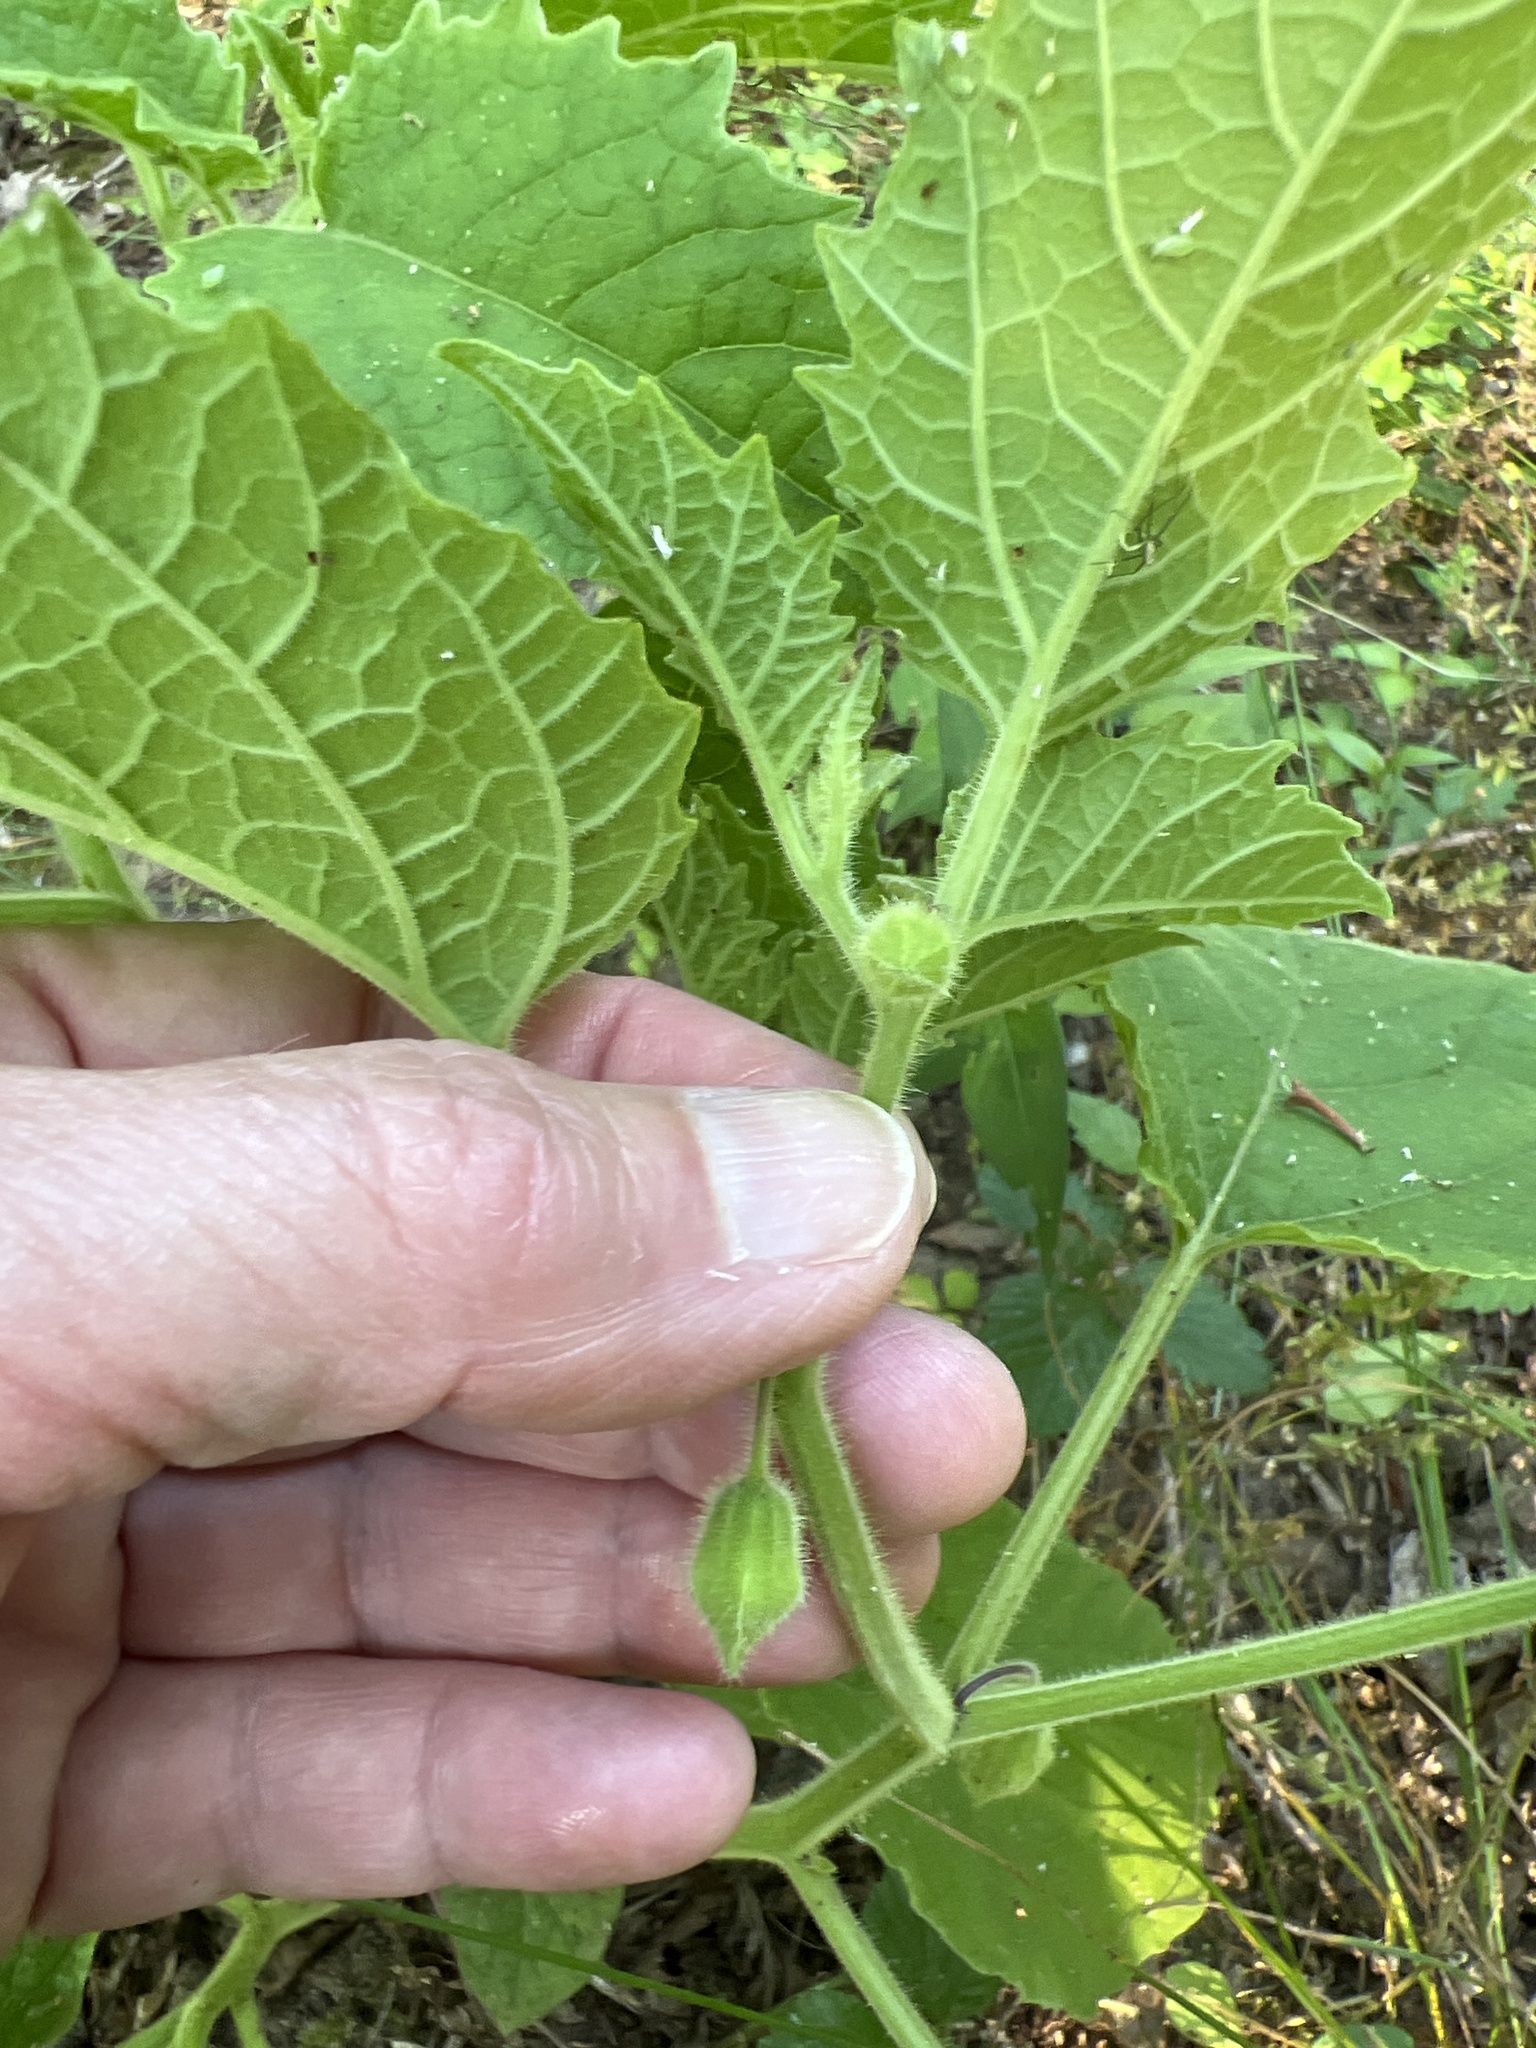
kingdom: Plantae
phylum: Tracheophyta
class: Magnoliopsida
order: Solanales
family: Solanaceae
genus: Physalis
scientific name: Physalis heterophylla
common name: Clammy ground-cherry
